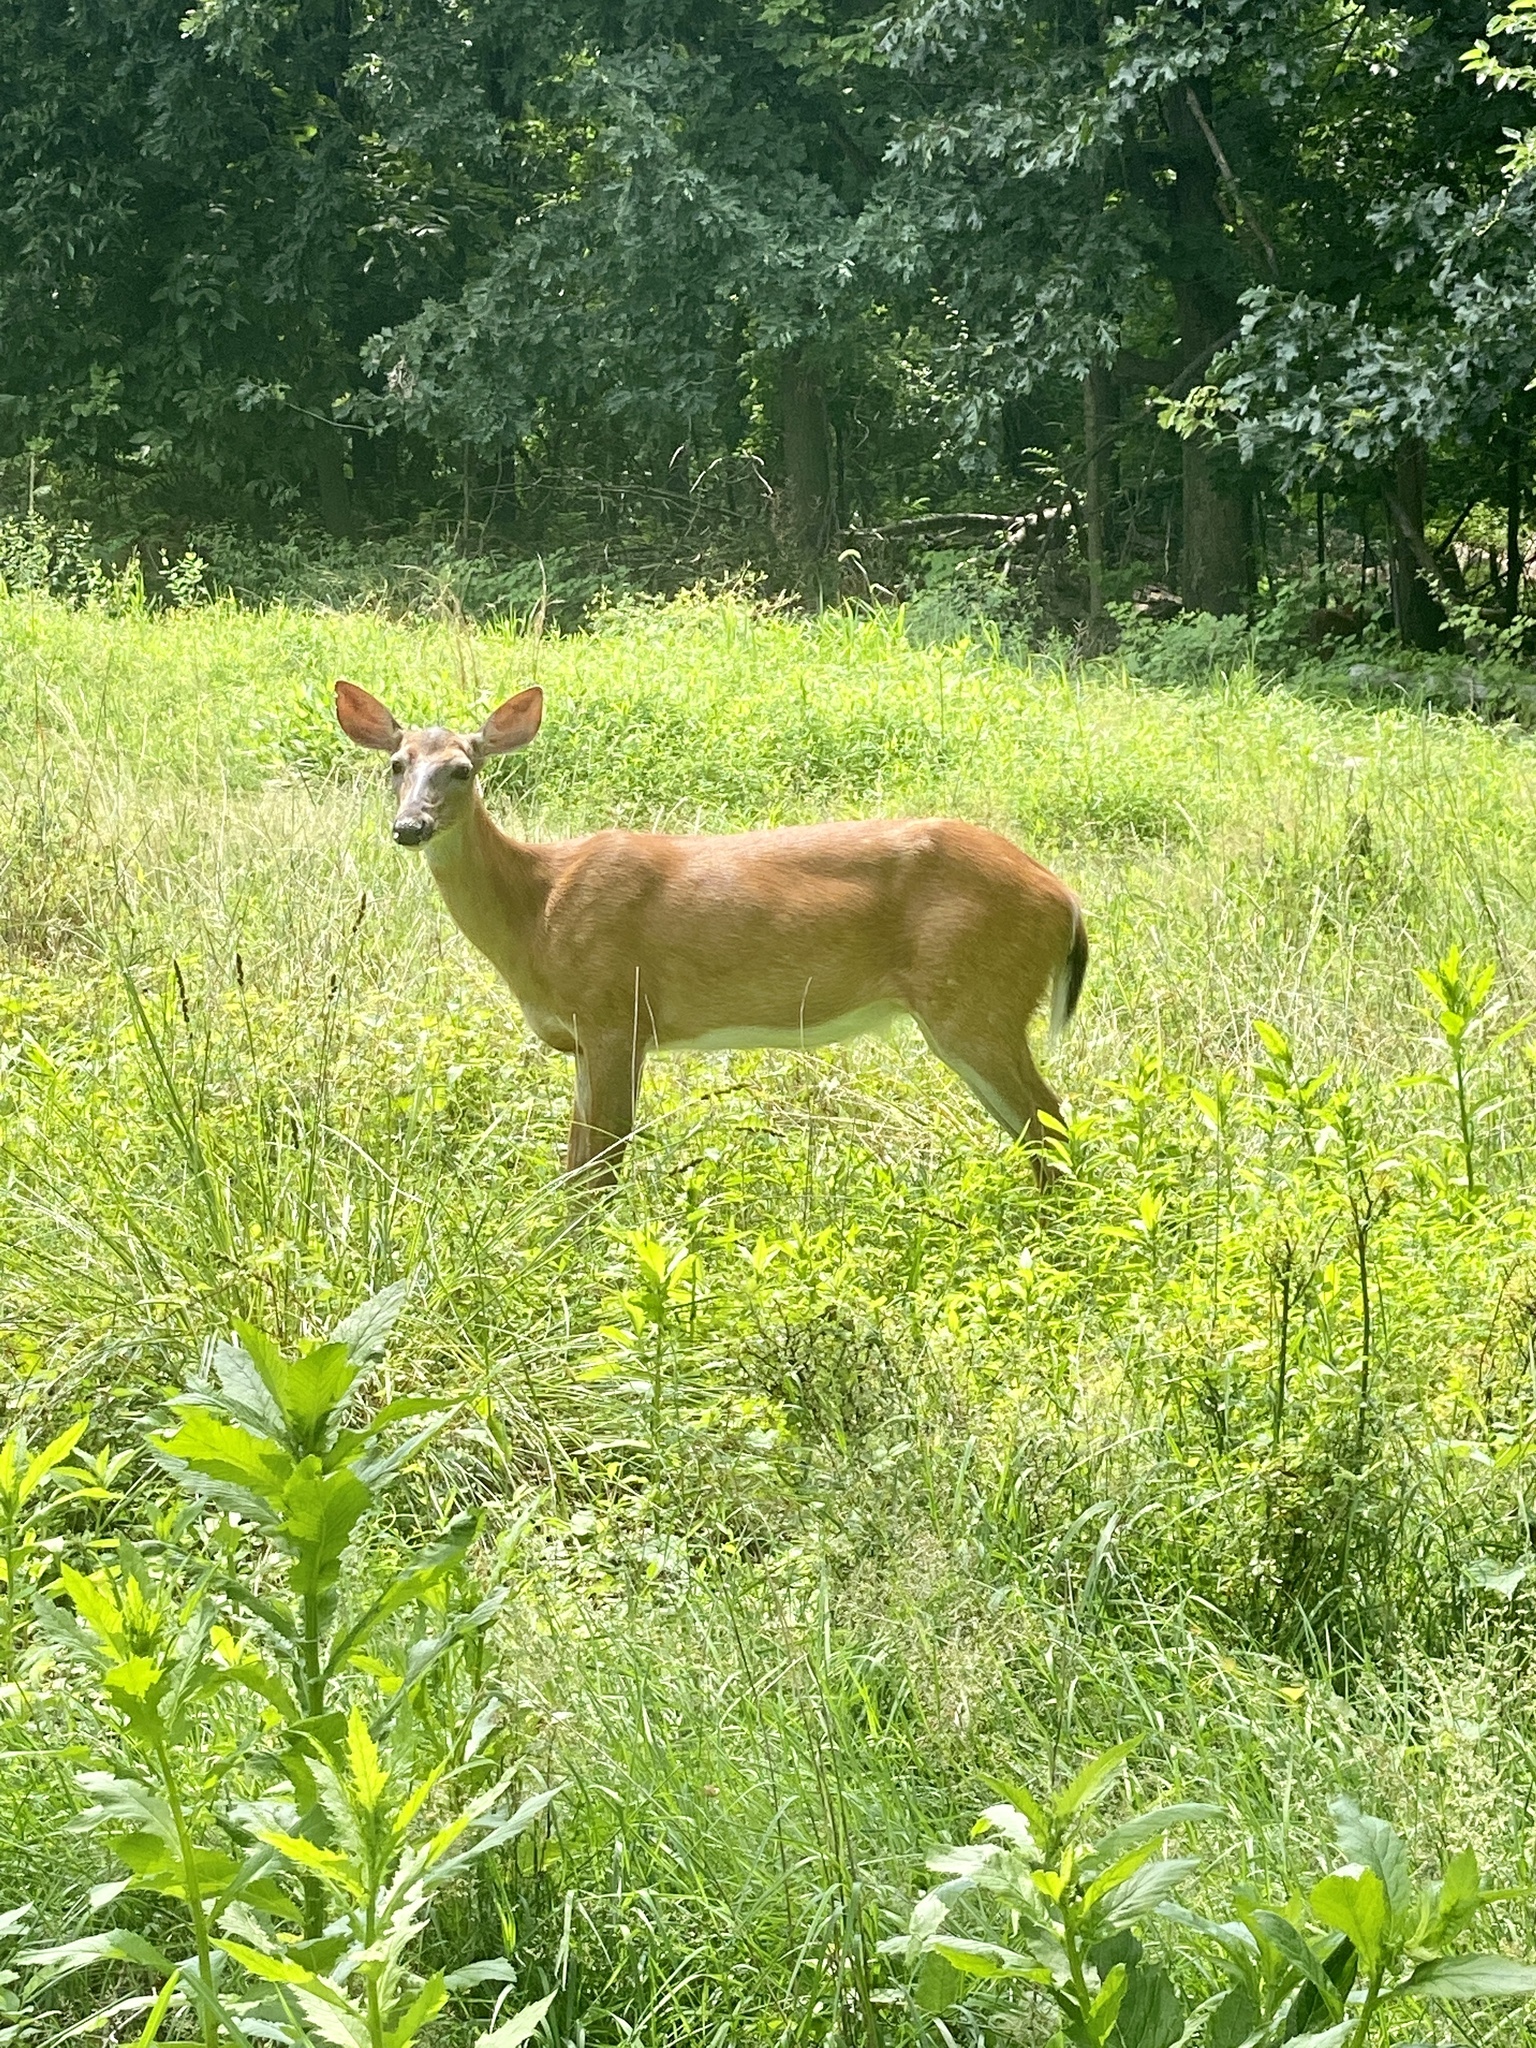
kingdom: Animalia
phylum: Chordata
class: Mammalia
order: Artiodactyla
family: Cervidae
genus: Odocoileus
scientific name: Odocoileus virginianus
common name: White-tailed deer
